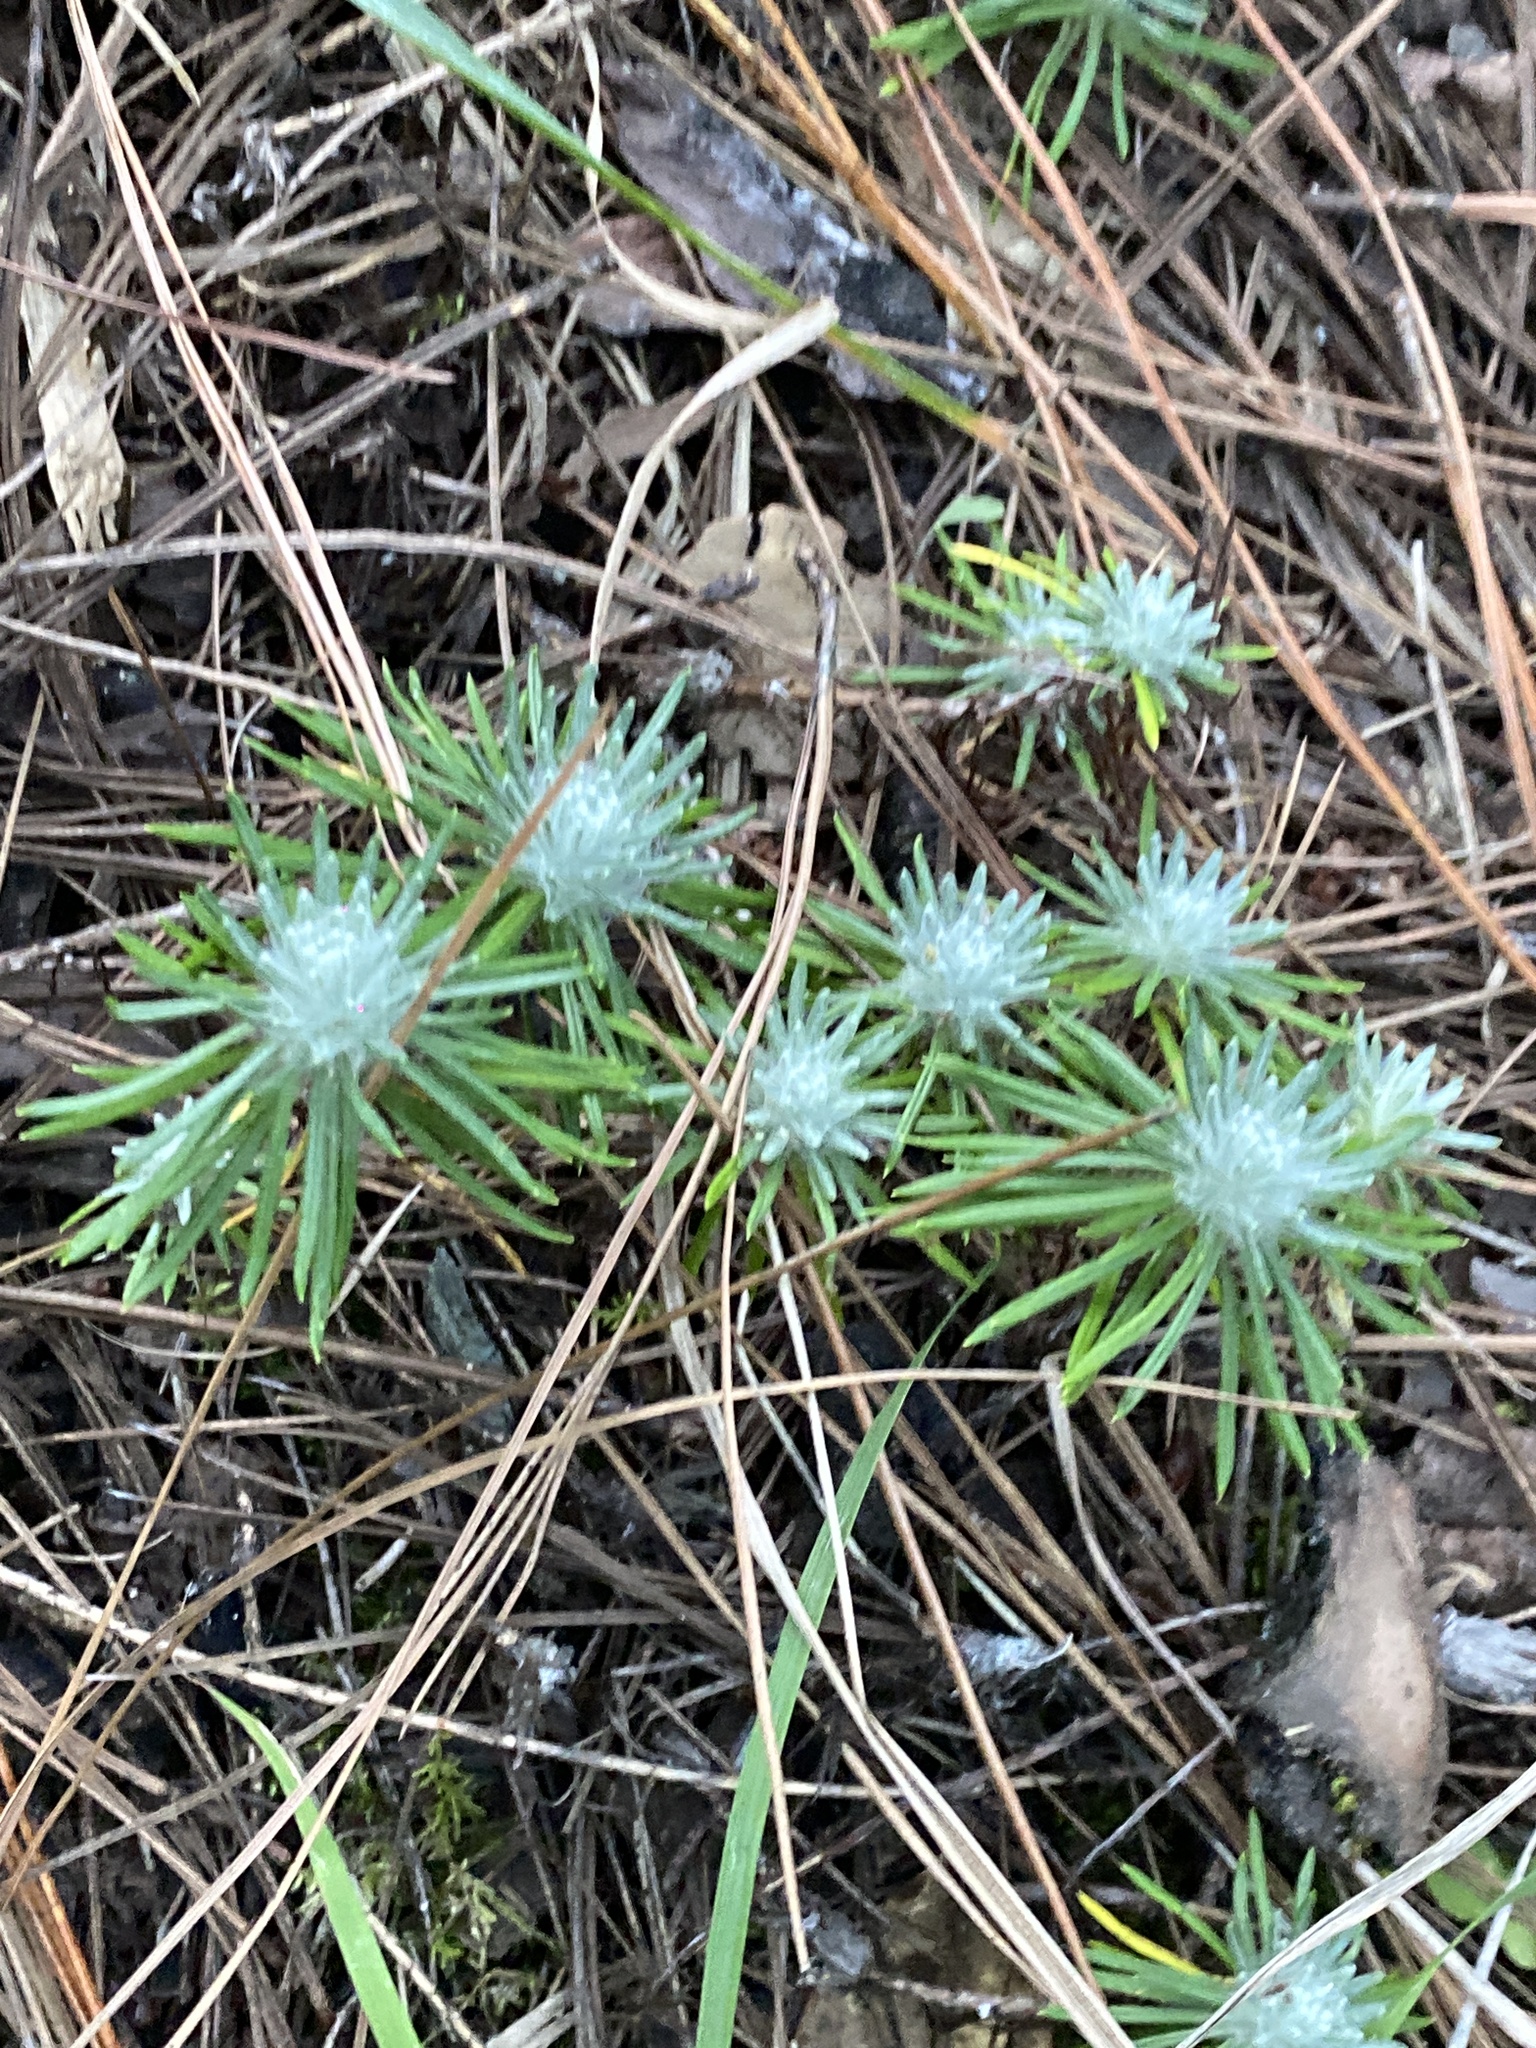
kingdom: Plantae
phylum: Tracheophyta
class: Magnoliopsida
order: Asterales
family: Asteraceae
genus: Leontopodium
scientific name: Leontopodium andersonii
